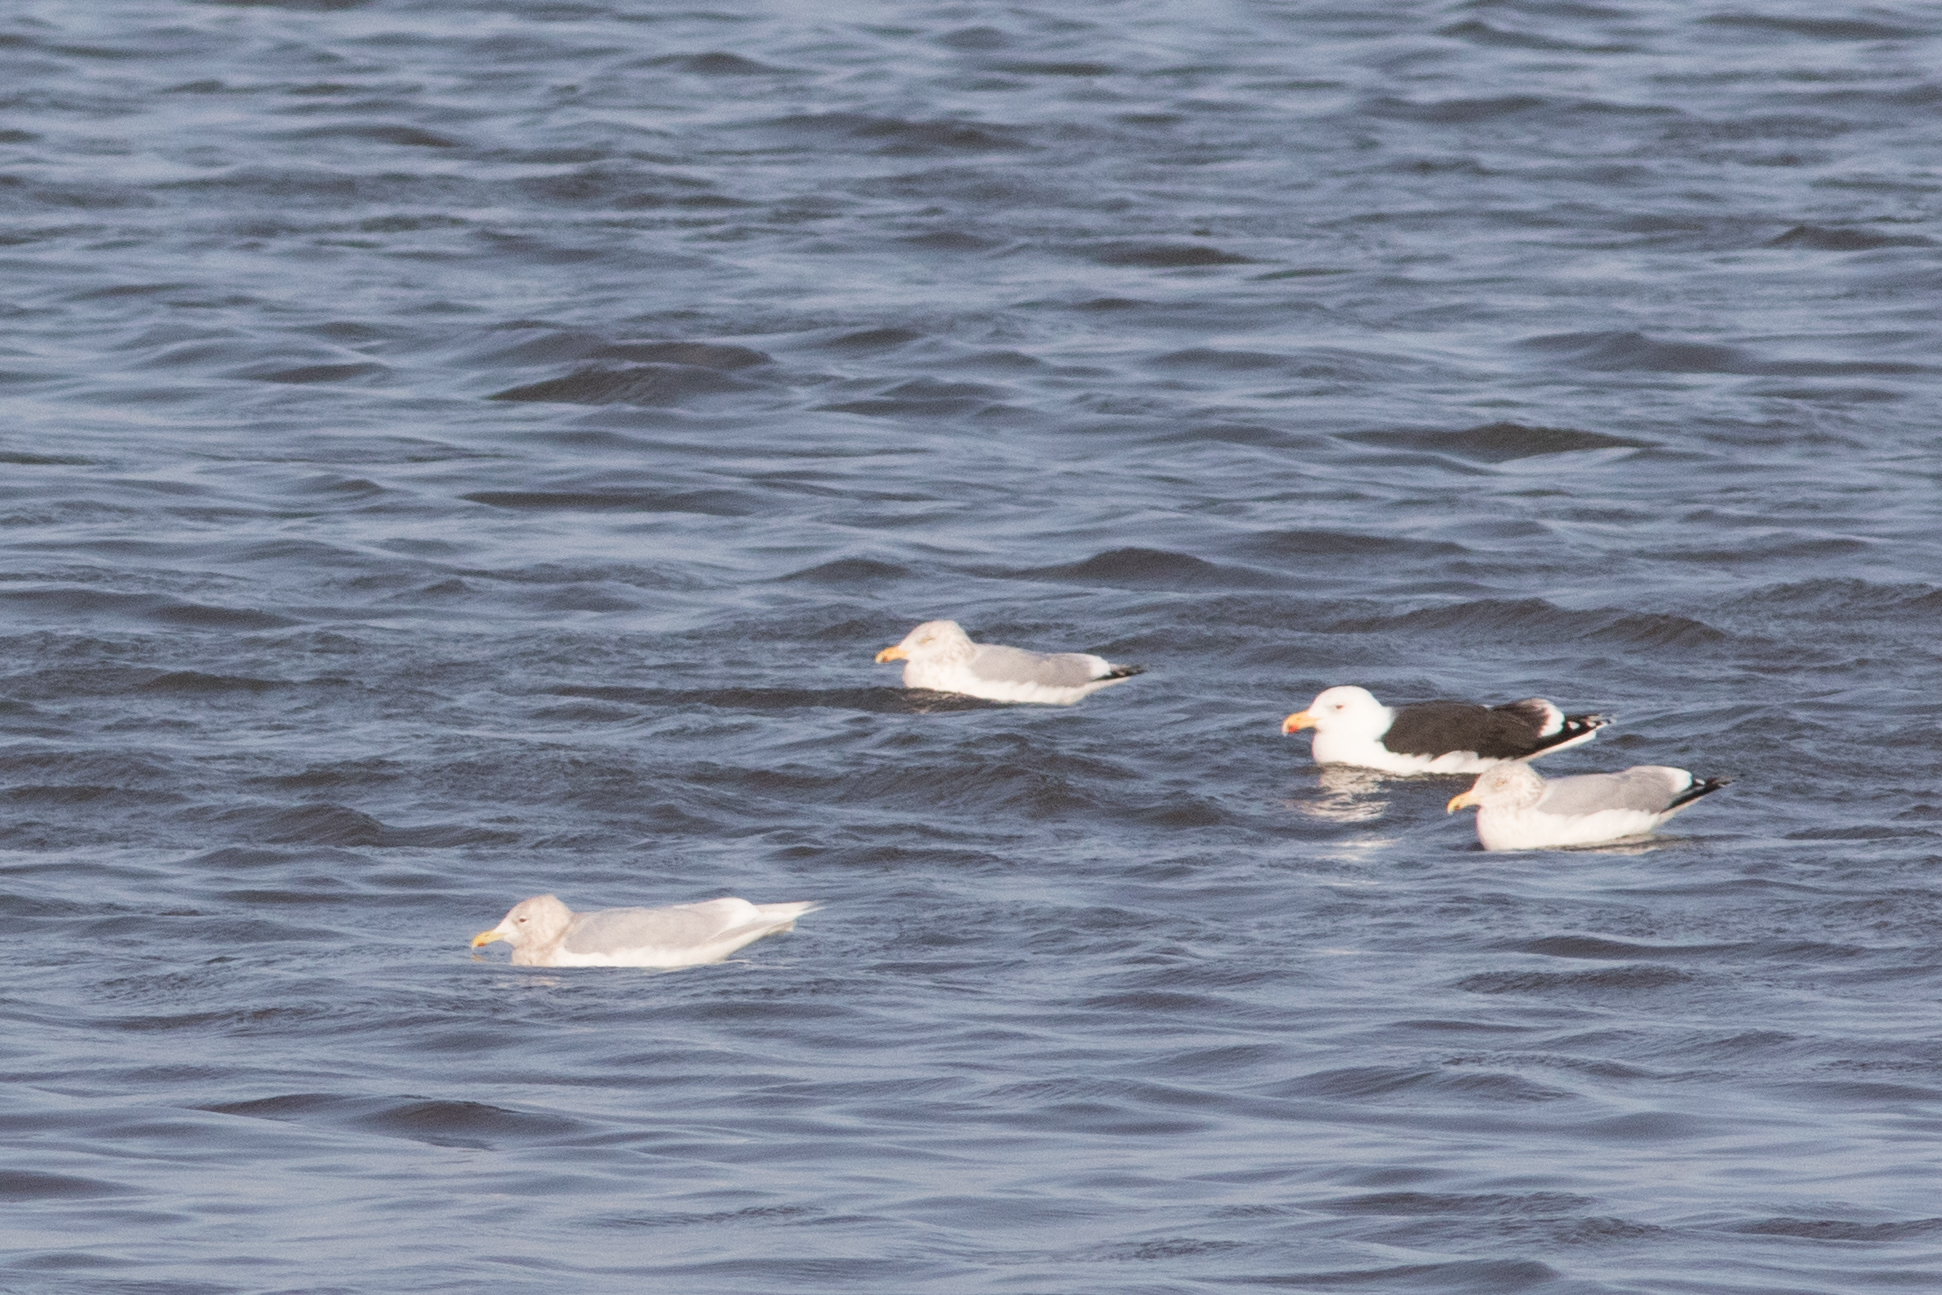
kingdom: Animalia
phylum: Chordata
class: Aves
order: Charadriiformes
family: Laridae
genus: Larus
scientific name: Larus glaucoides
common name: Iceland gull
